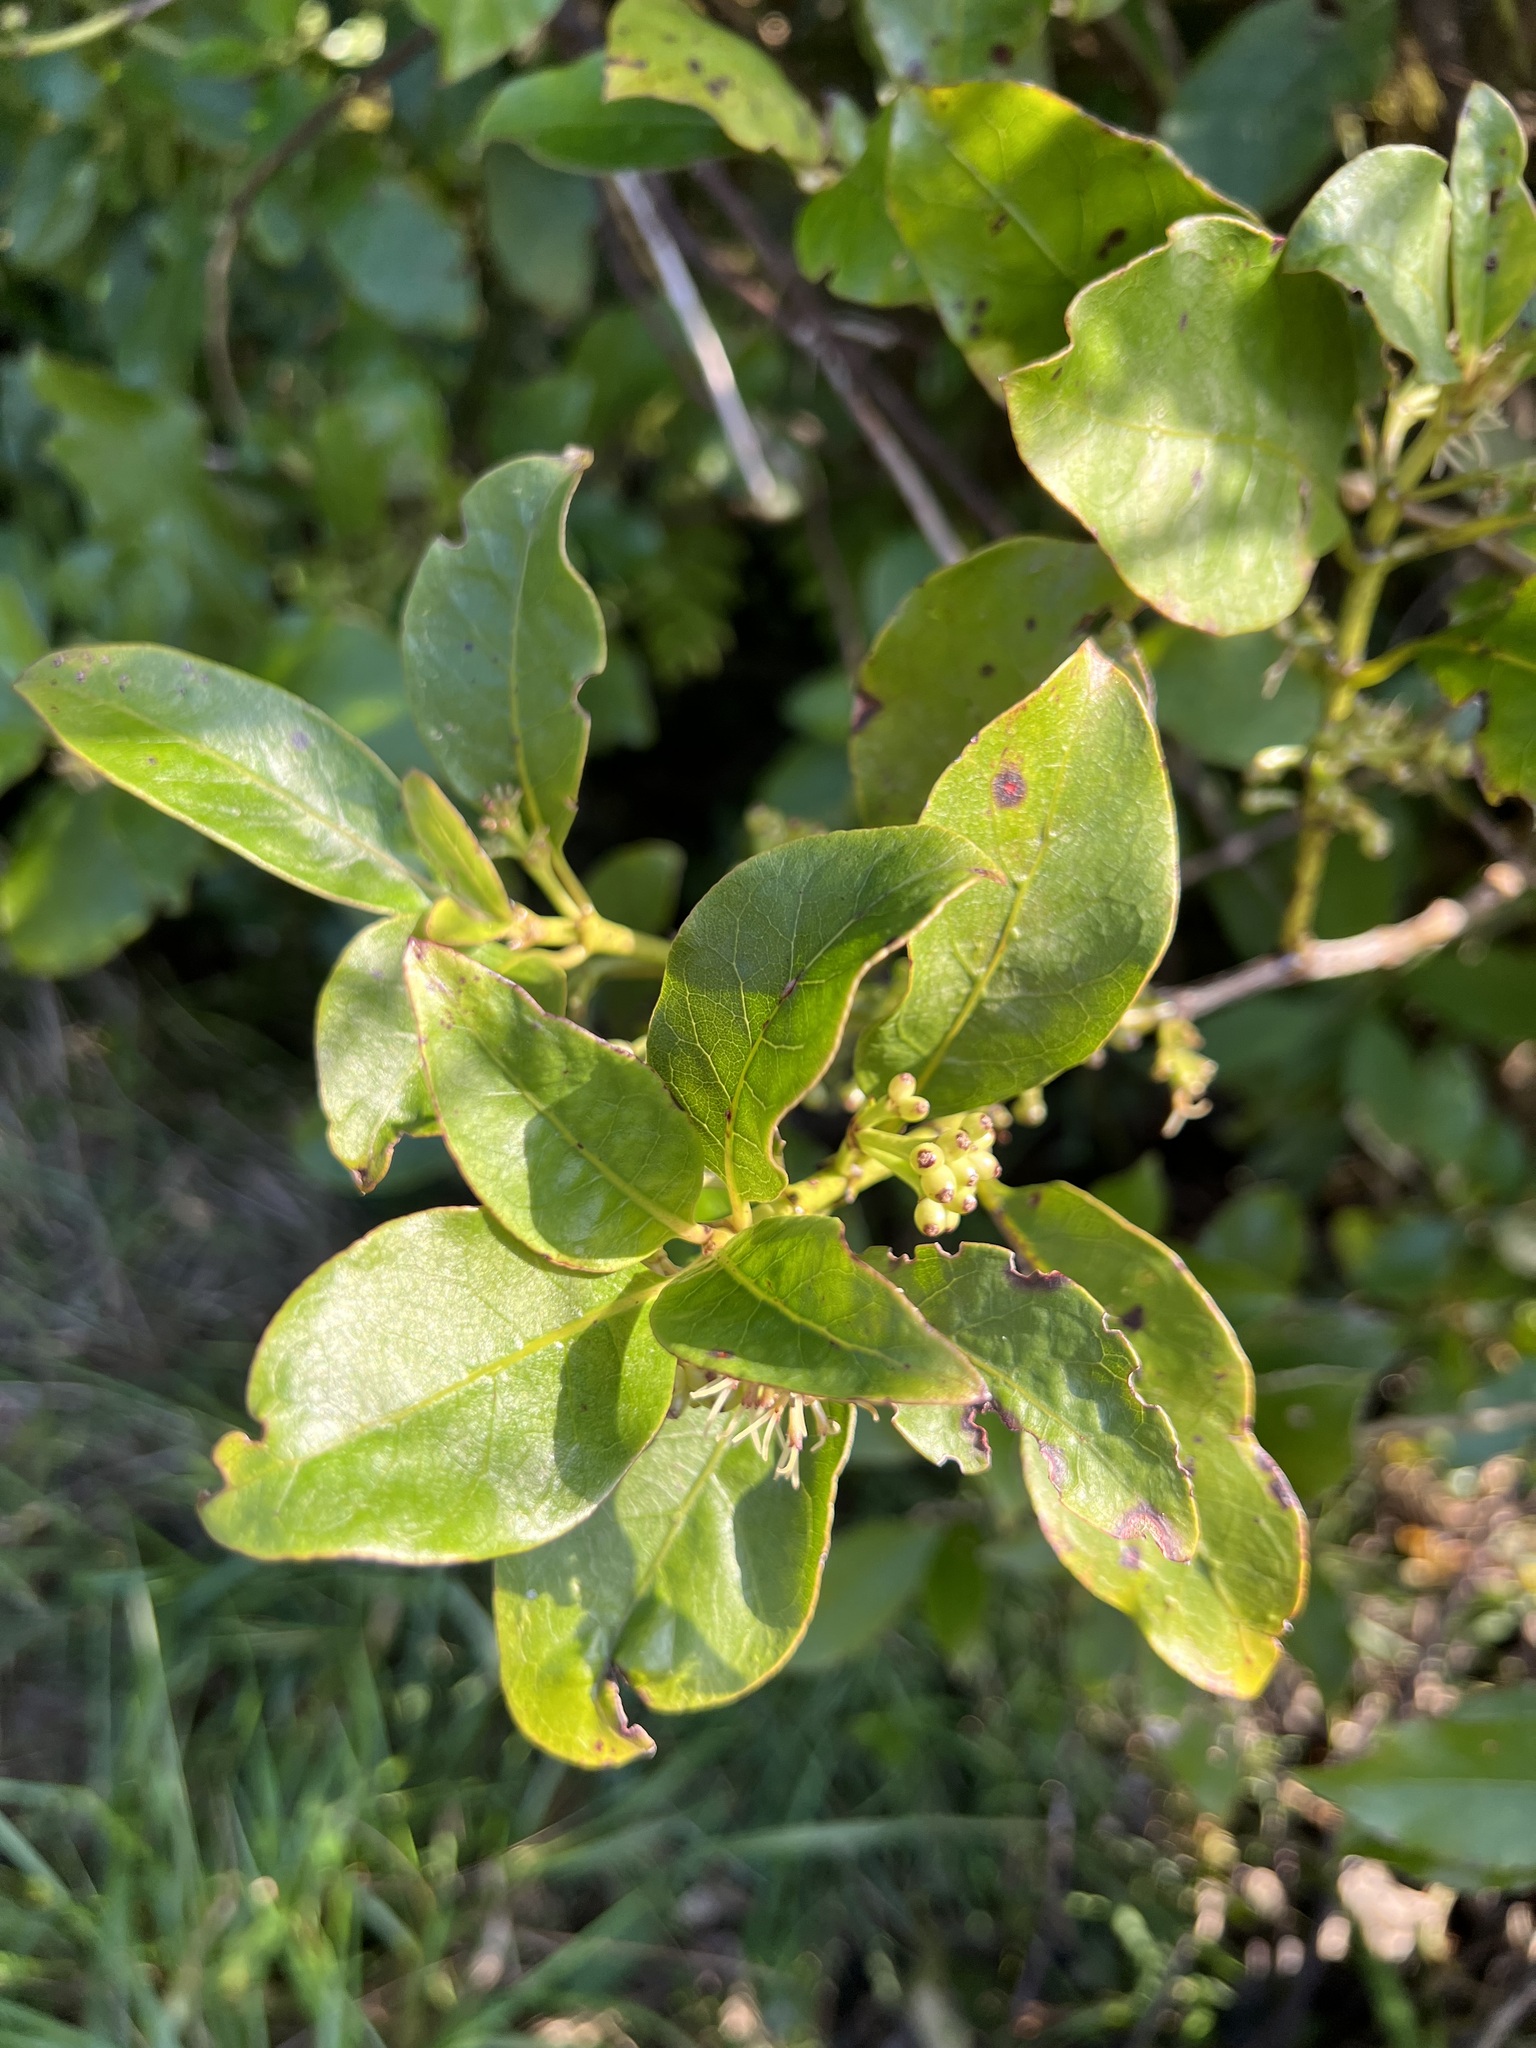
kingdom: Plantae
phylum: Tracheophyta
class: Magnoliopsida
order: Gentianales
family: Rubiaceae
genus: Coprosma
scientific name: Coprosma autumnalis
